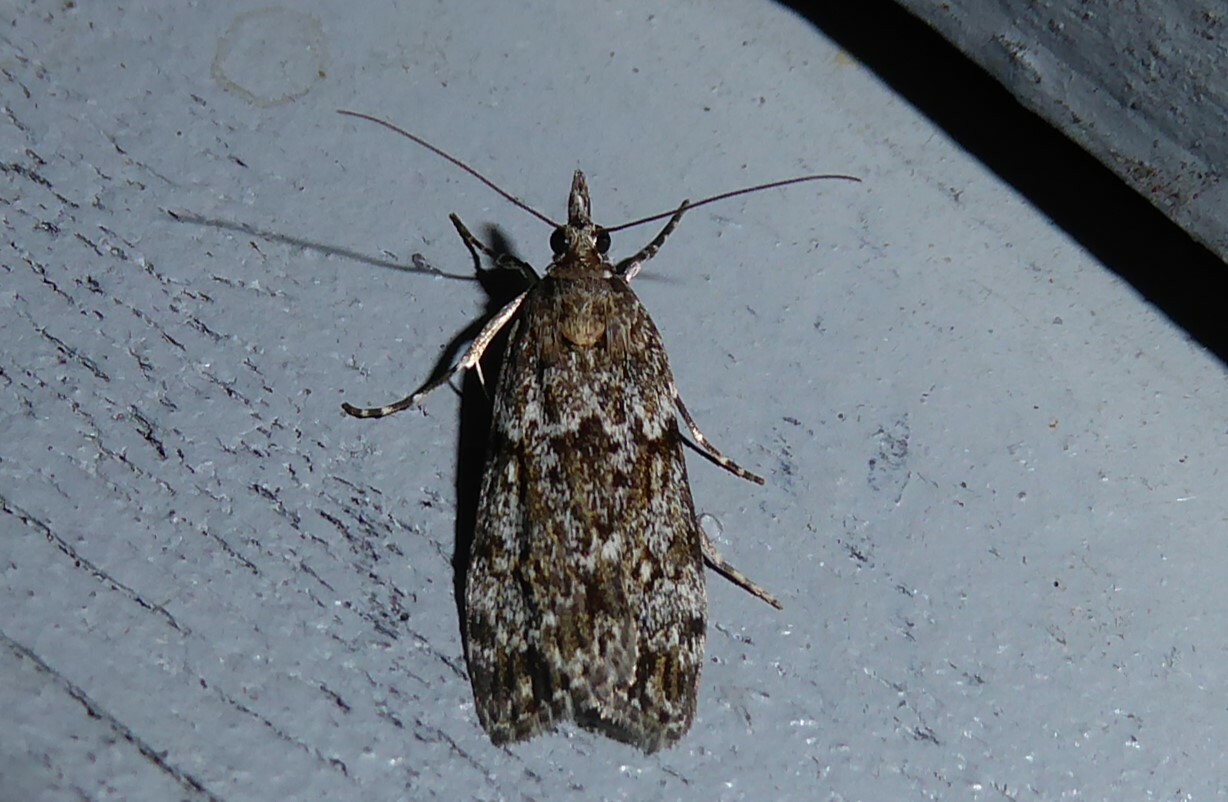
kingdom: Animalia
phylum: Arthropoda
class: Insecta
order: Lepidoptera
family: Crambidae
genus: Eudonia
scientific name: Eudonia cymatias
